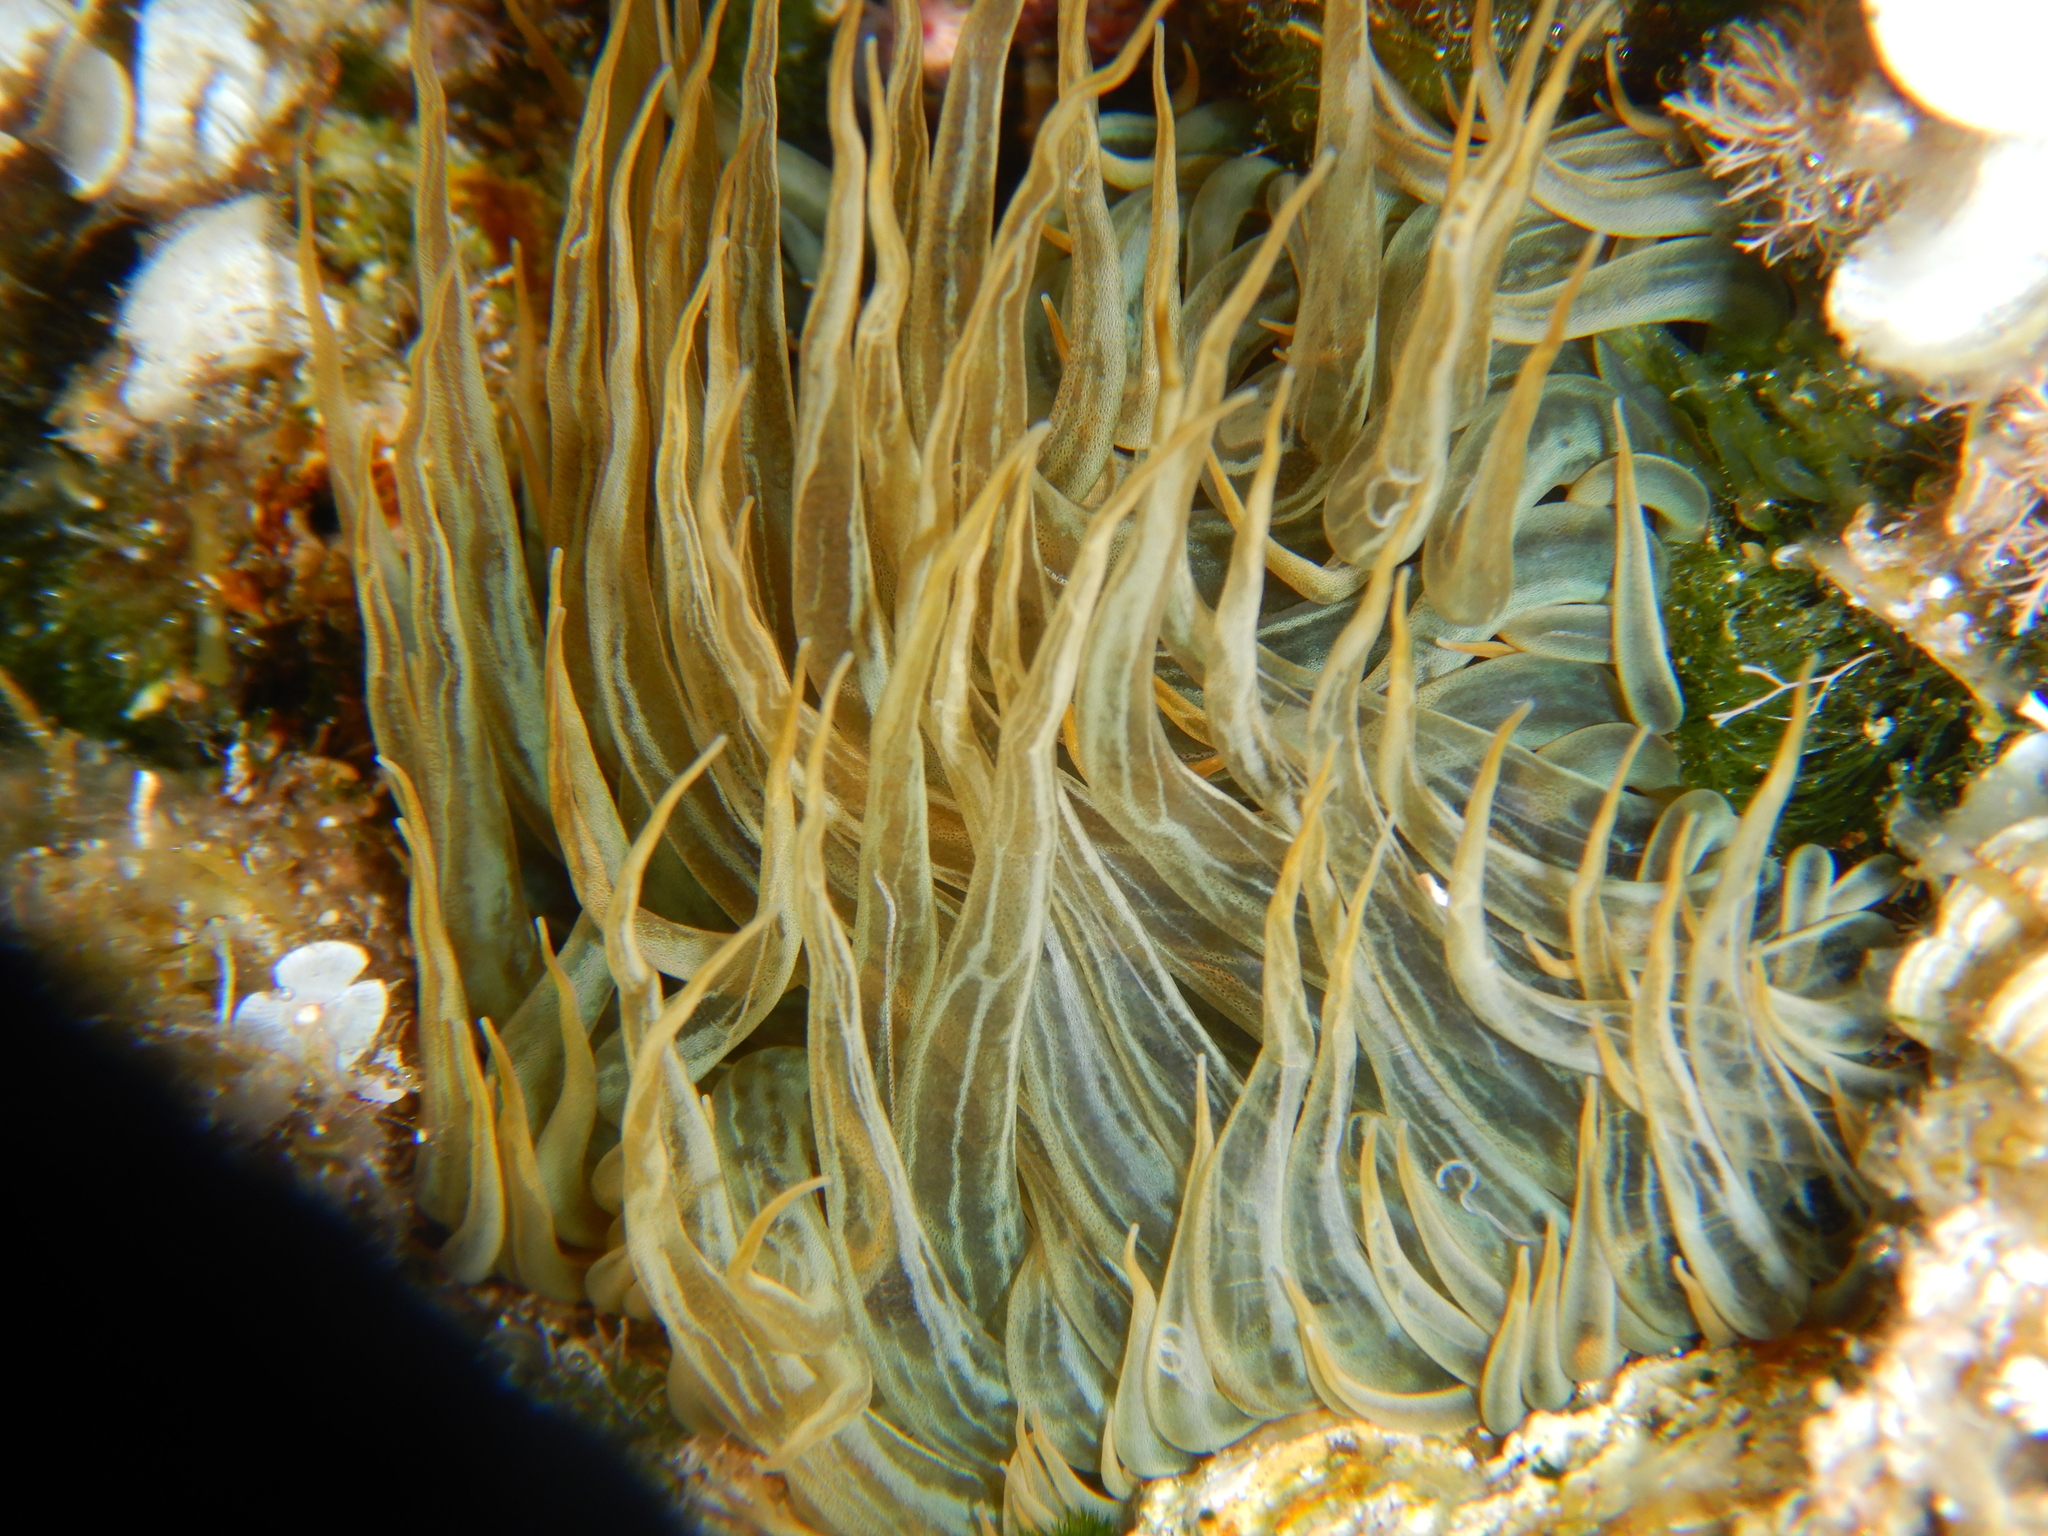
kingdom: Animalia
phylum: Cnidaria
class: Anthozoa
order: Actiniaria
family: Aiptasiidae
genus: Aiptasia
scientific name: Aiptasia mutabilis
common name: Trumpet anemone
